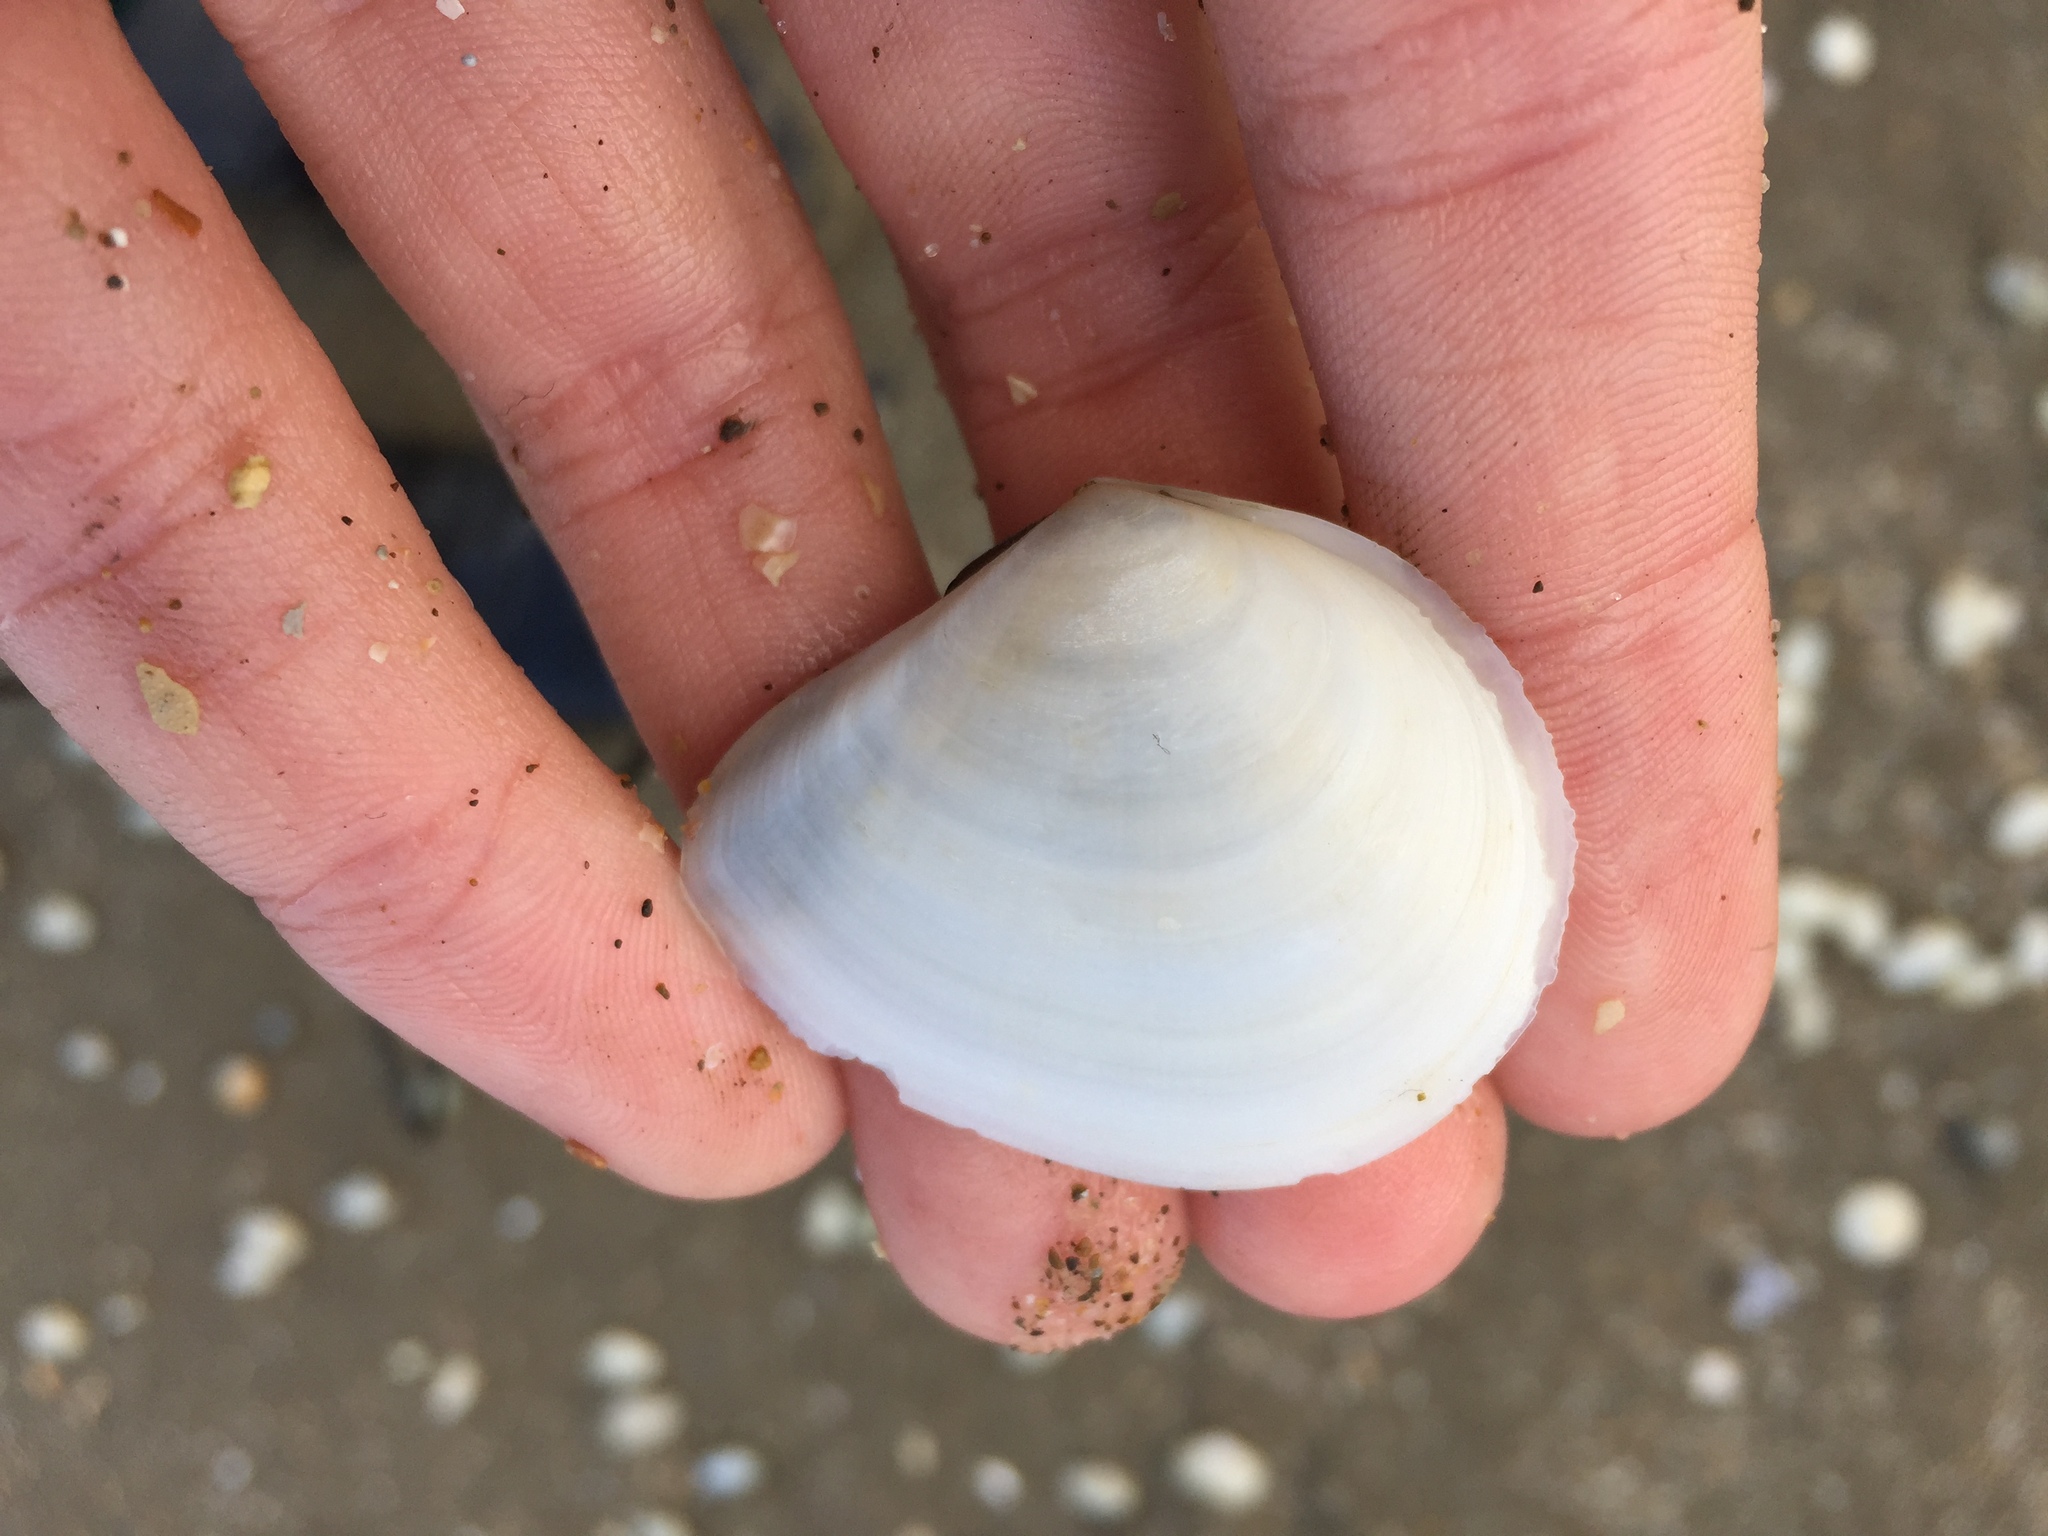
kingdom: Animalia
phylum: Mollusca
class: Bivalvia
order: Cardiida
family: Tellinidae
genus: Macomona
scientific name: Macomona liliana
